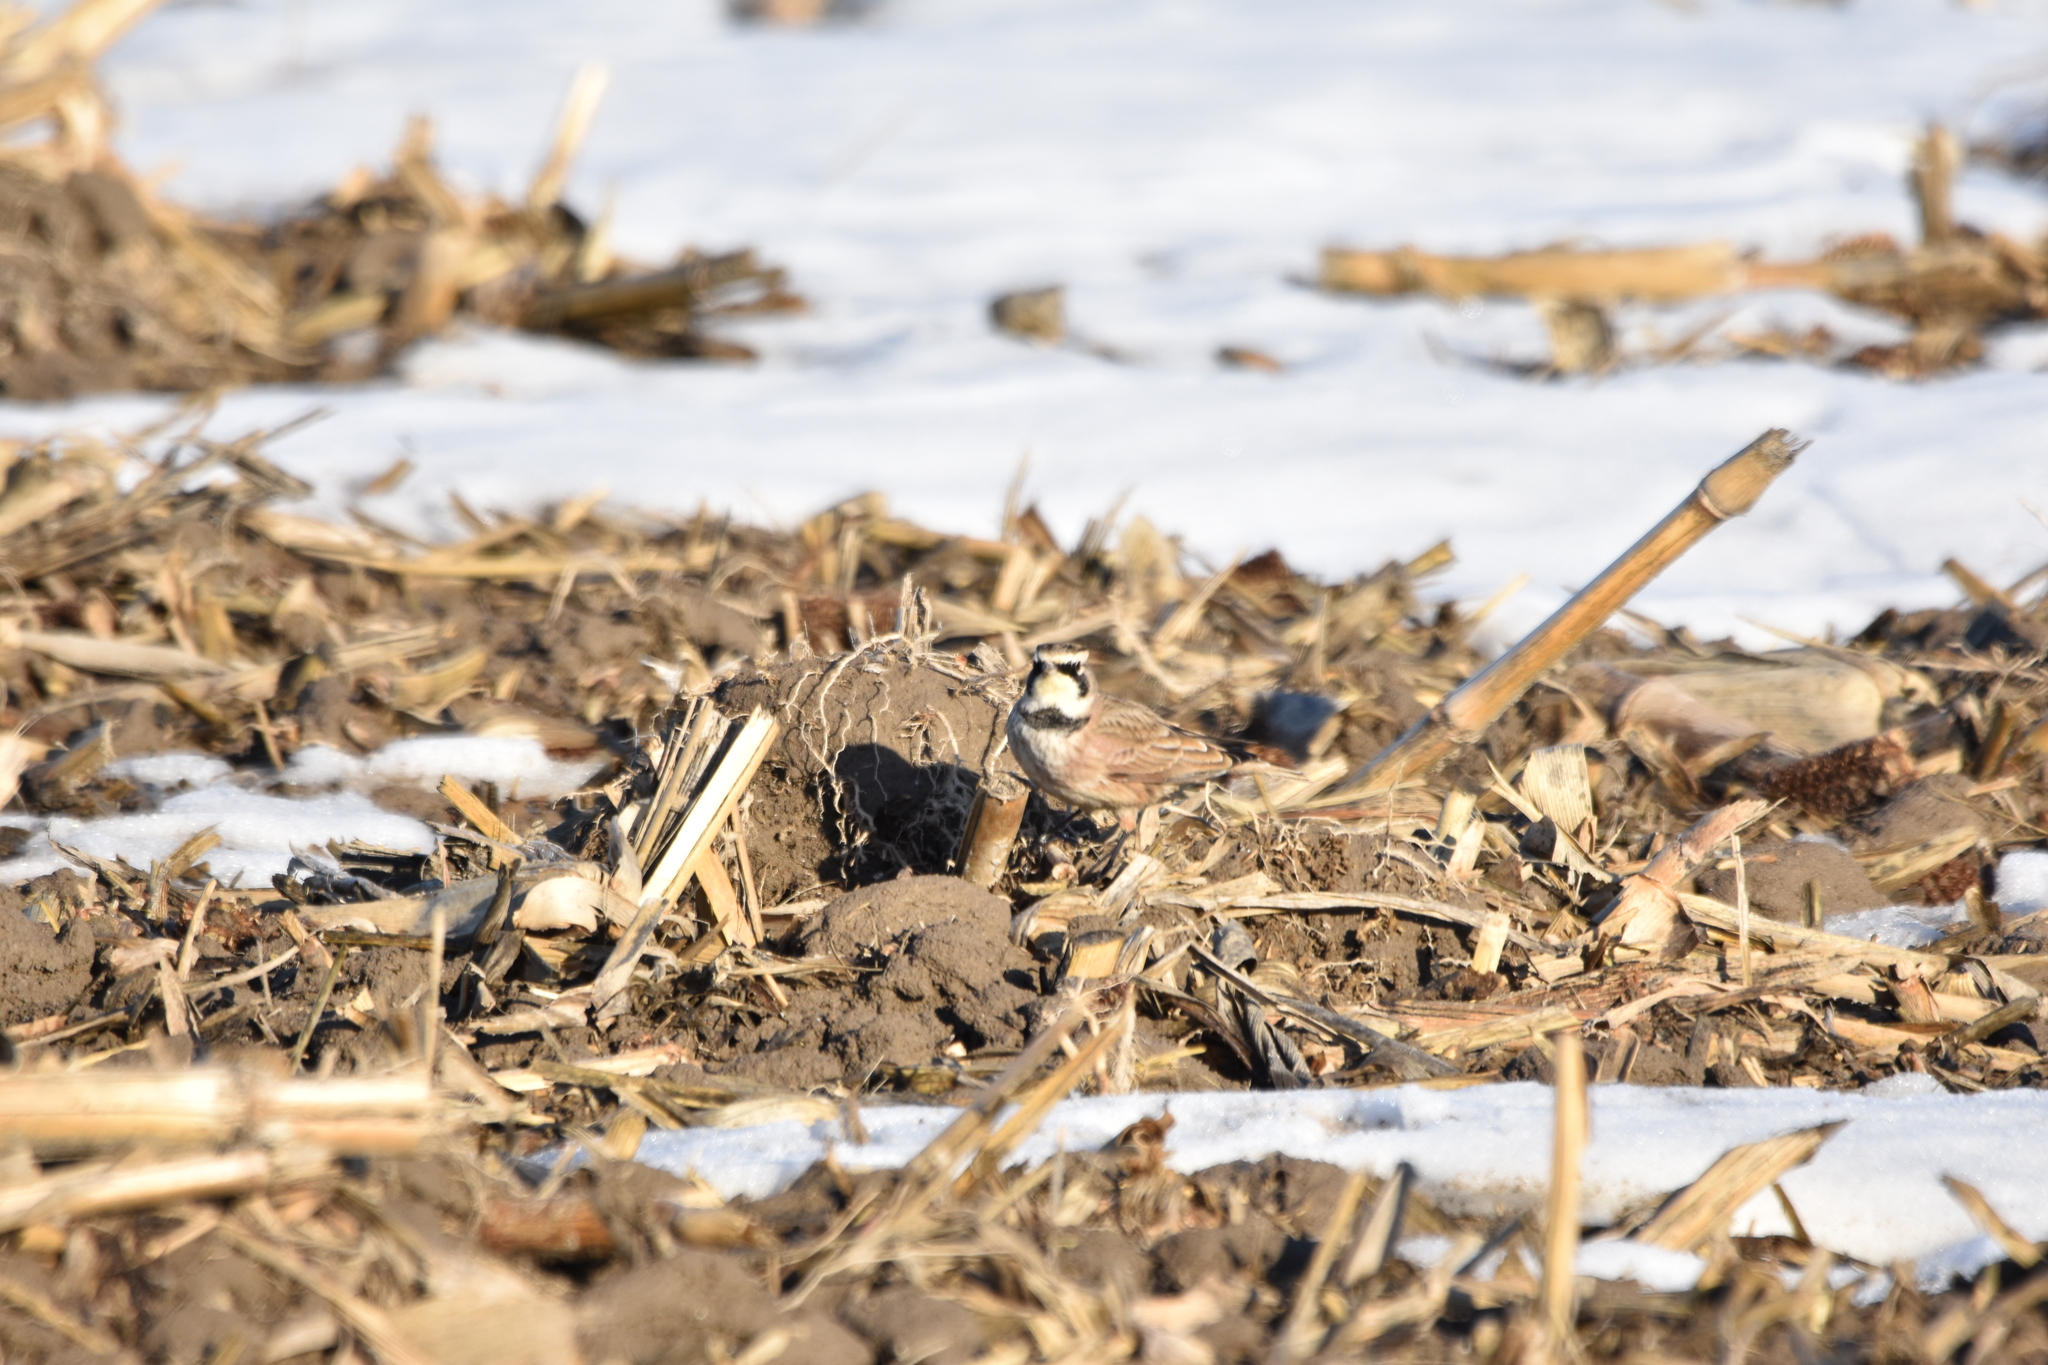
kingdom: Animalia
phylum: Chordata
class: Aves
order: Passeriformes
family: Alaudidae
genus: Eremophila
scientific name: Eremophila alpestris
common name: Horned lark
